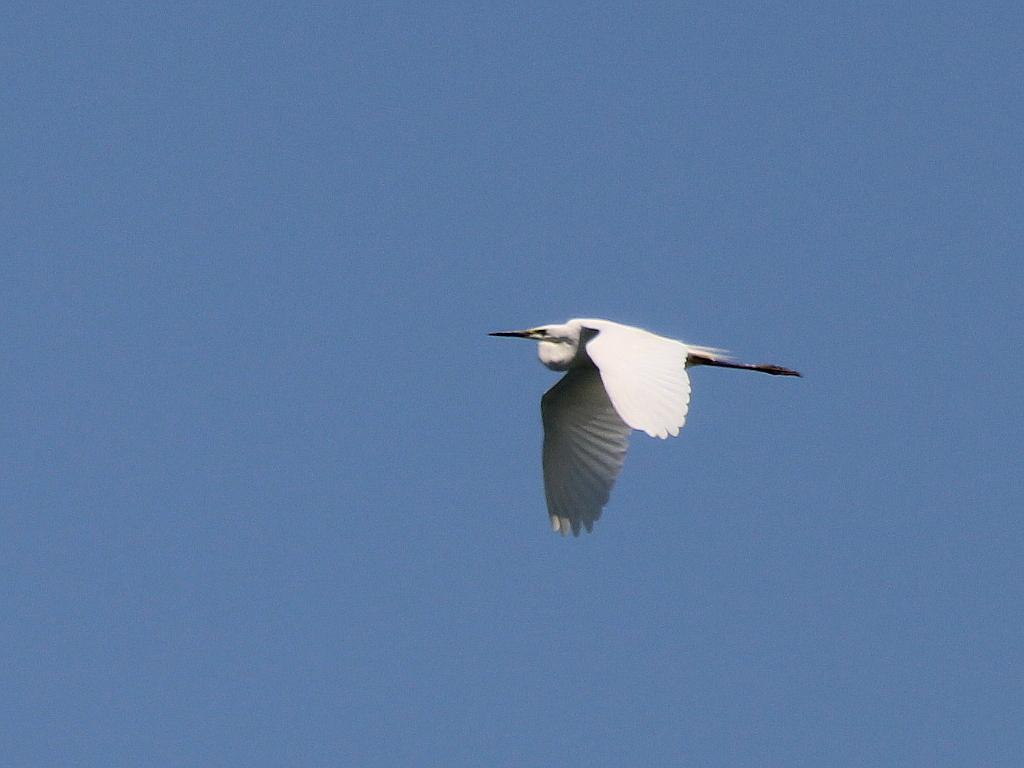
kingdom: Animalia
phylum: Chordata
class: Aves
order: Pelecaniformes
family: Ardeidae
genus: Ardea
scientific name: Ardea alba
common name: Great egret
